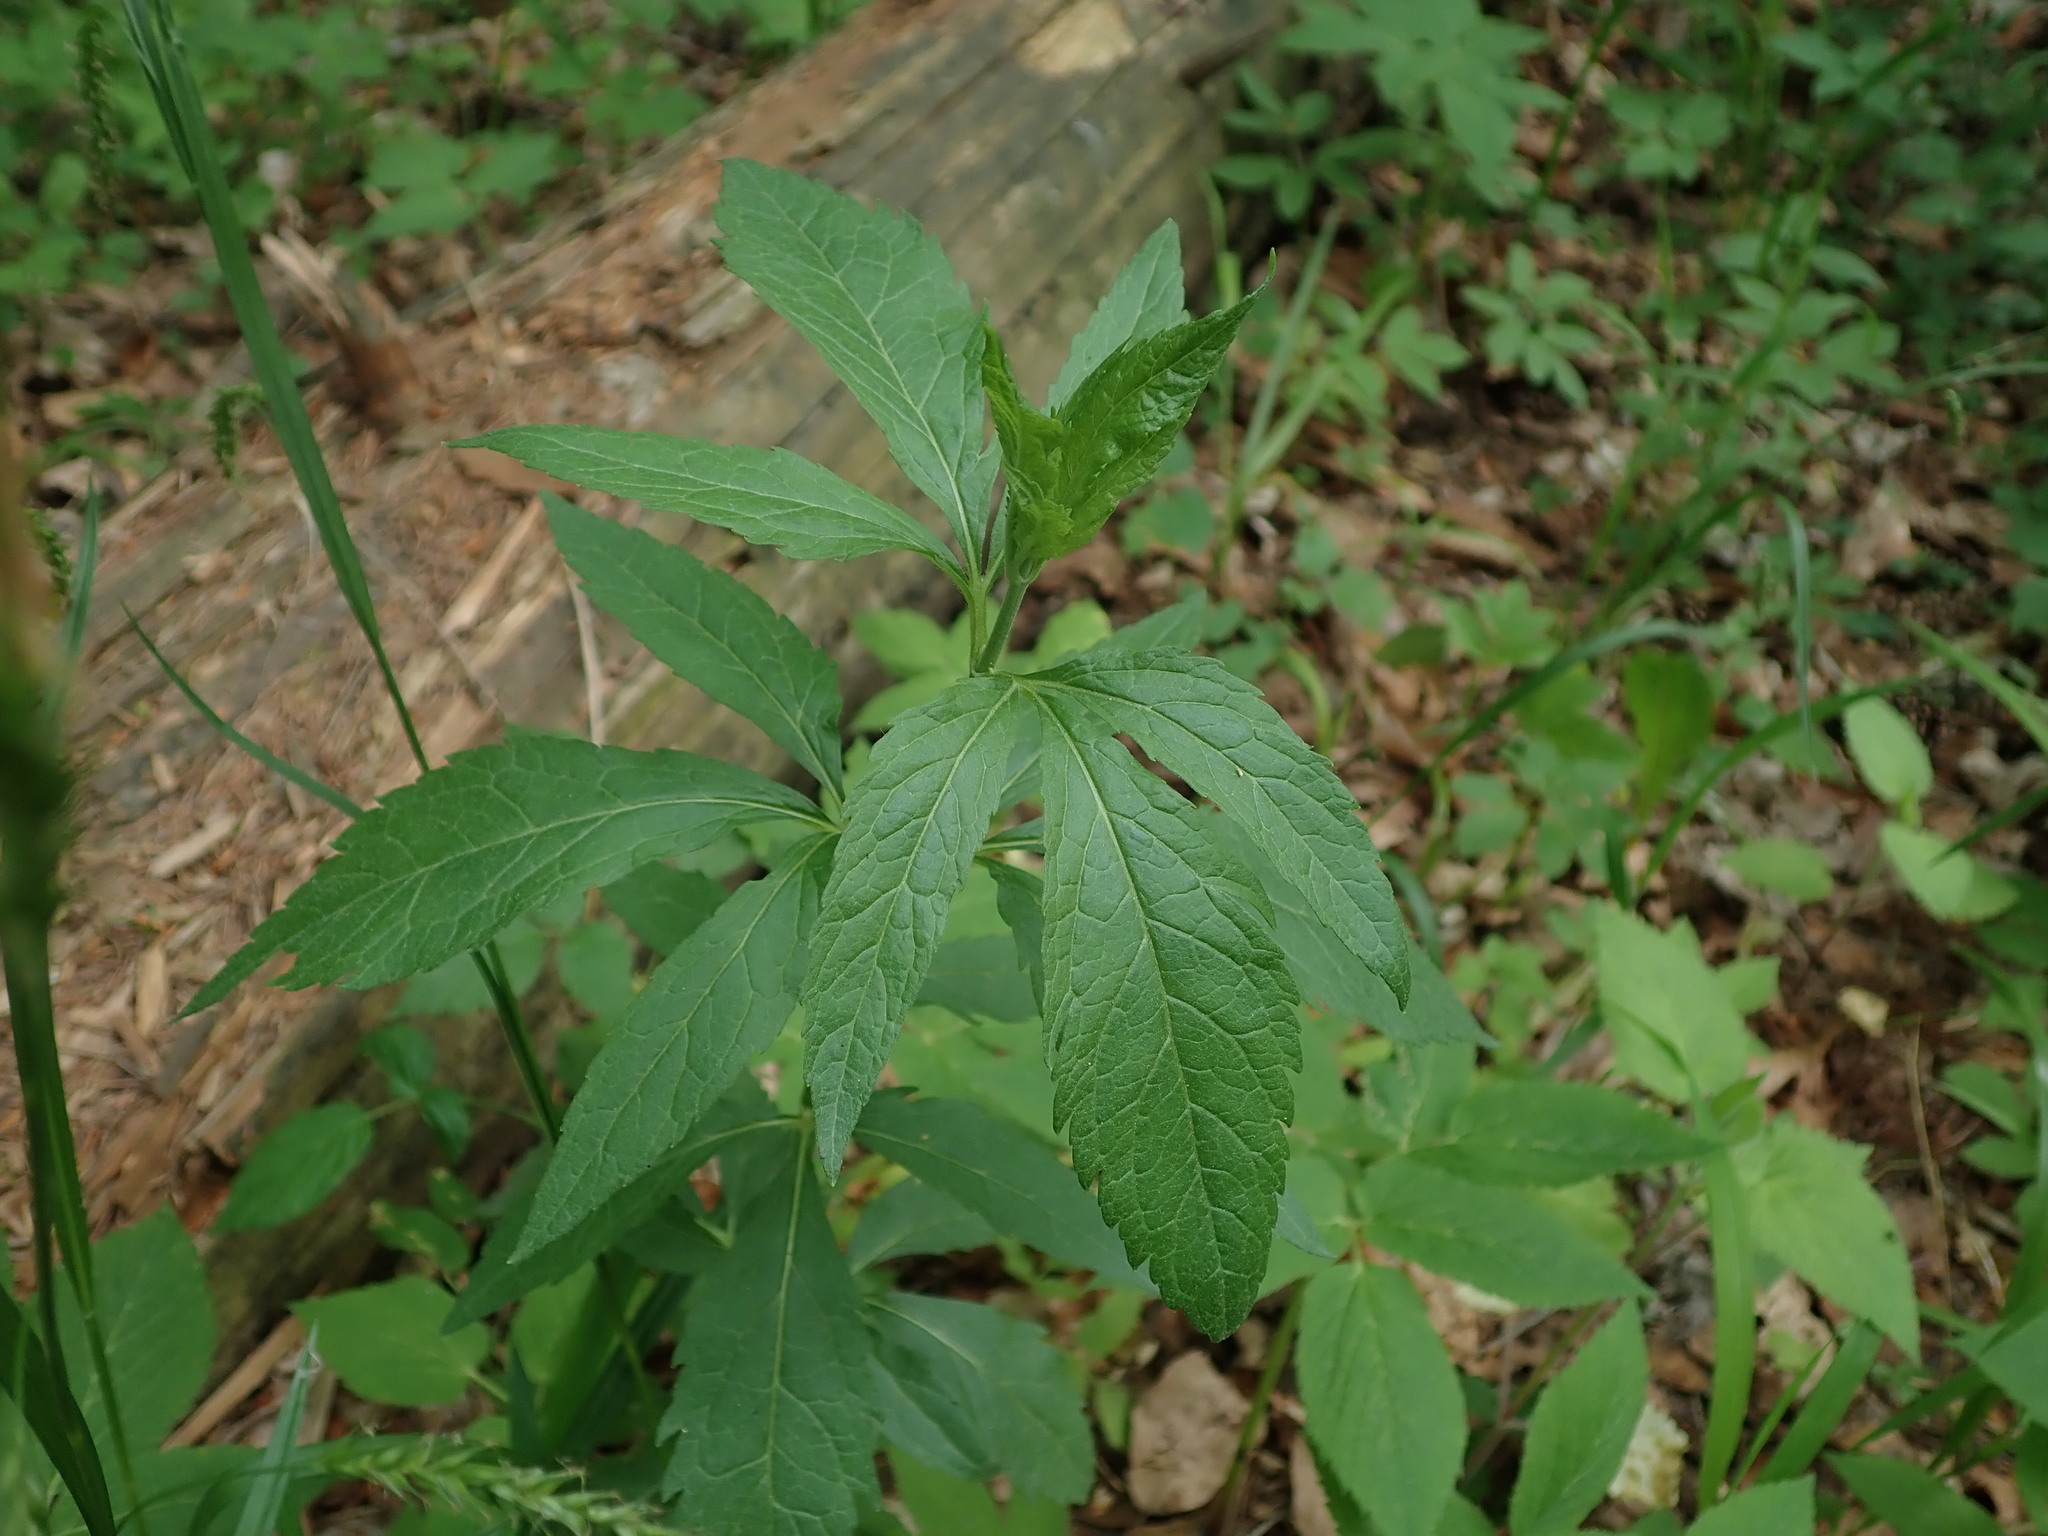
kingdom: Plantae
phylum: Tracheophyta
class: Magnoliopsida
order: Asterales
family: Asteraceae
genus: Eupatorium
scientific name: Eupatorium cannabinum
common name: Hemp-agrimony
